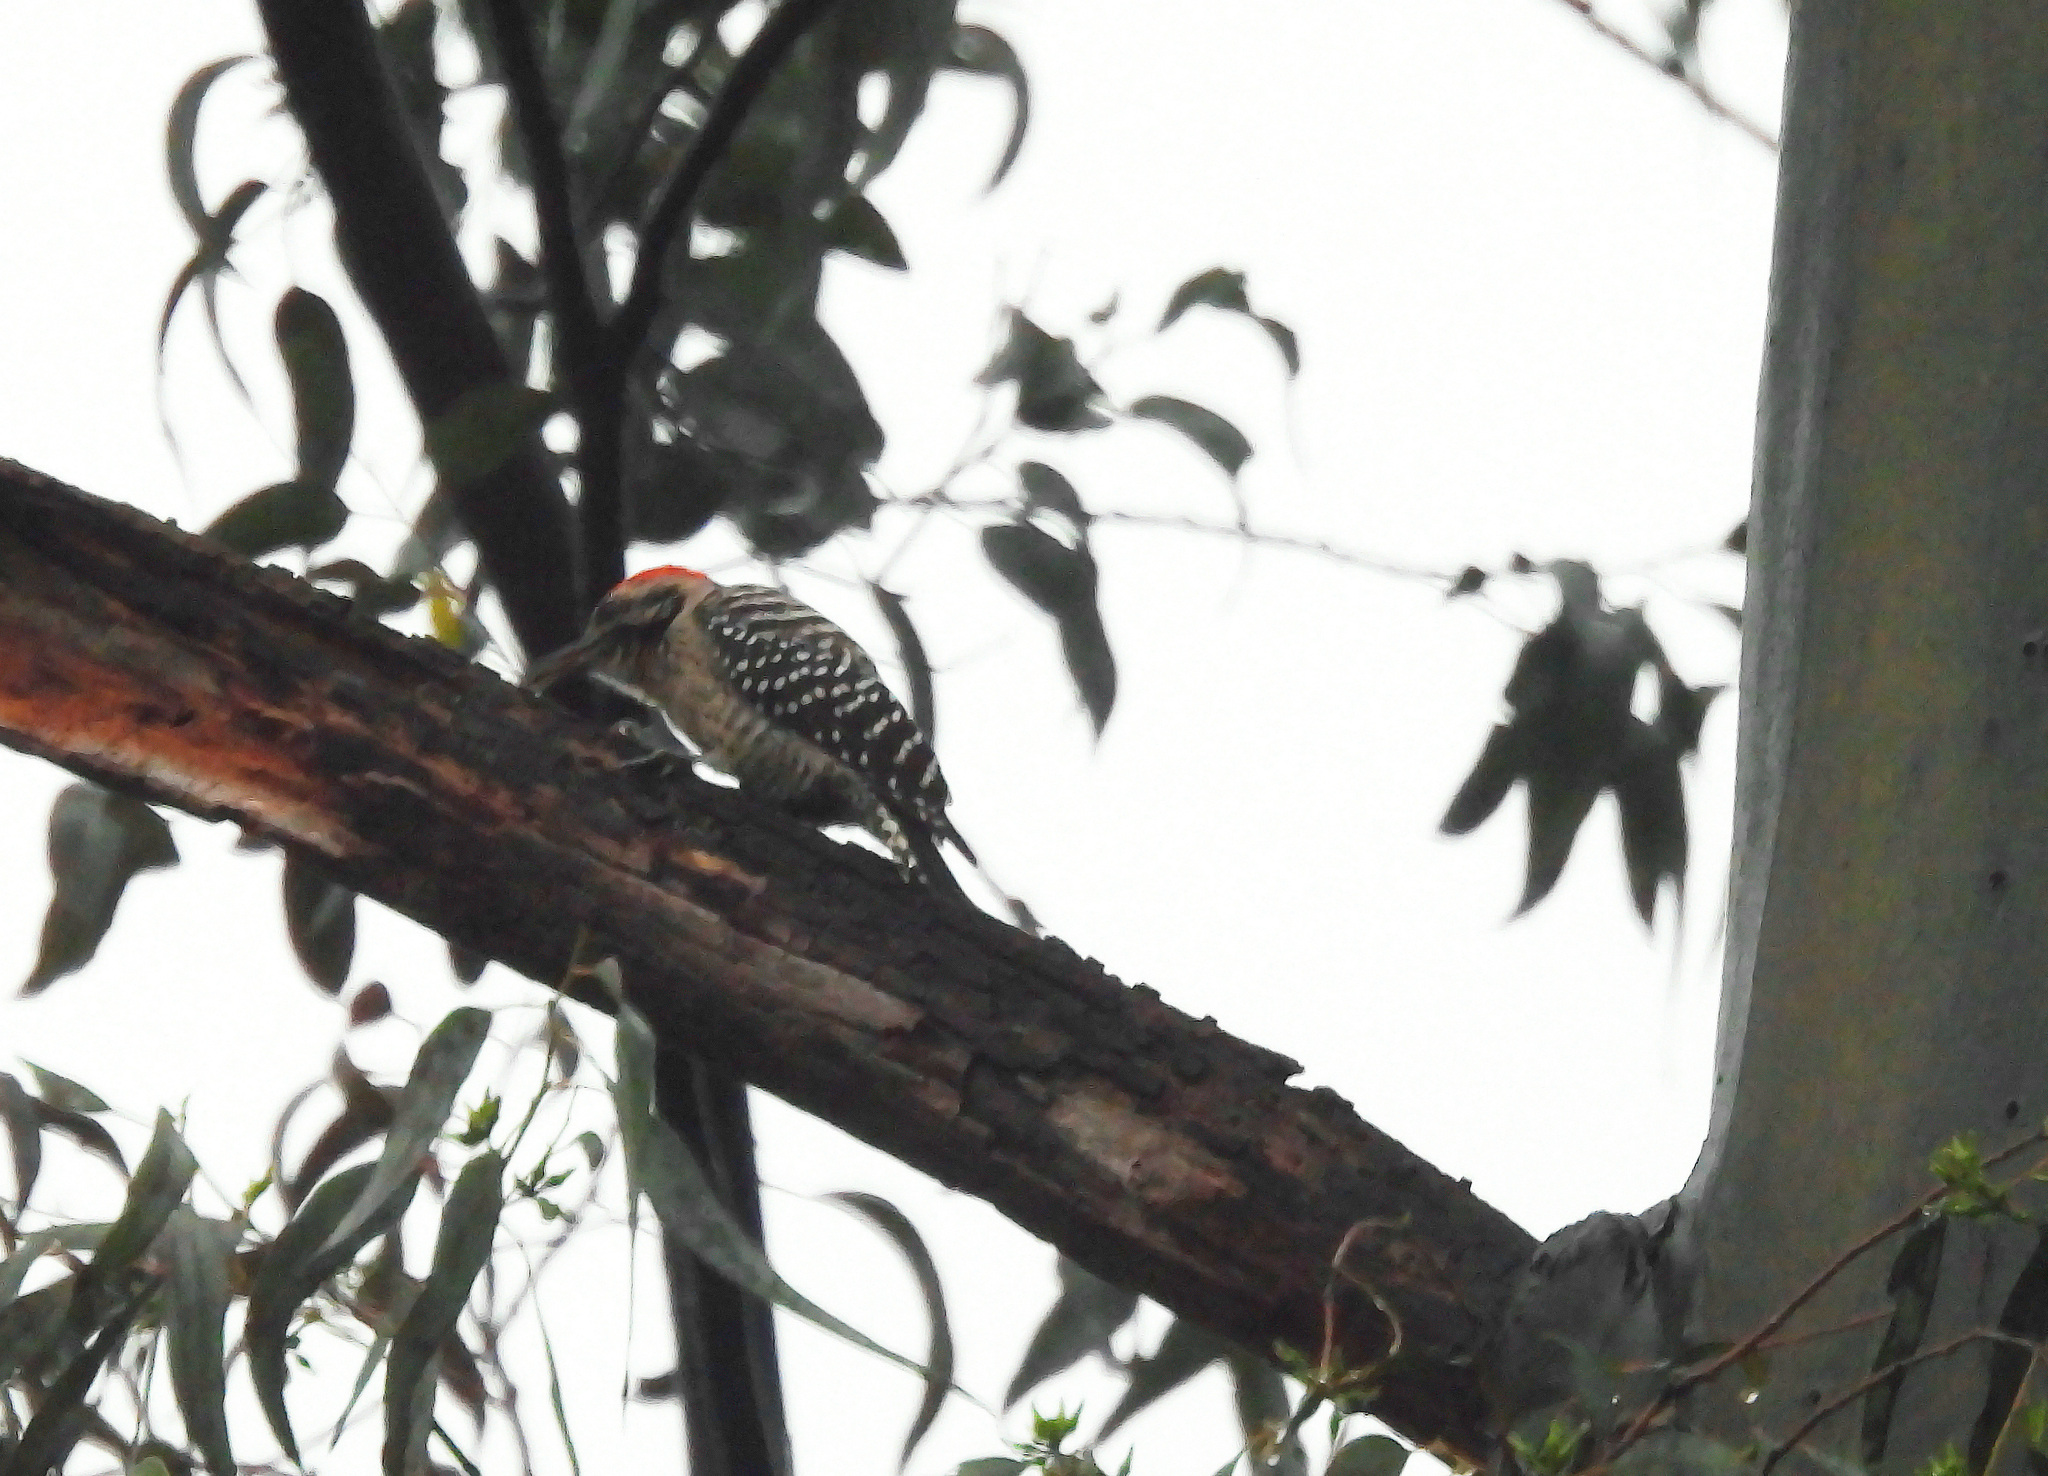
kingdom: Animalia
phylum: Chordata
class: Aves
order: Piciformes
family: Picidae
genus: Dryobates
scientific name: Dryobates scalaris
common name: Ladder-backed woodpecker
